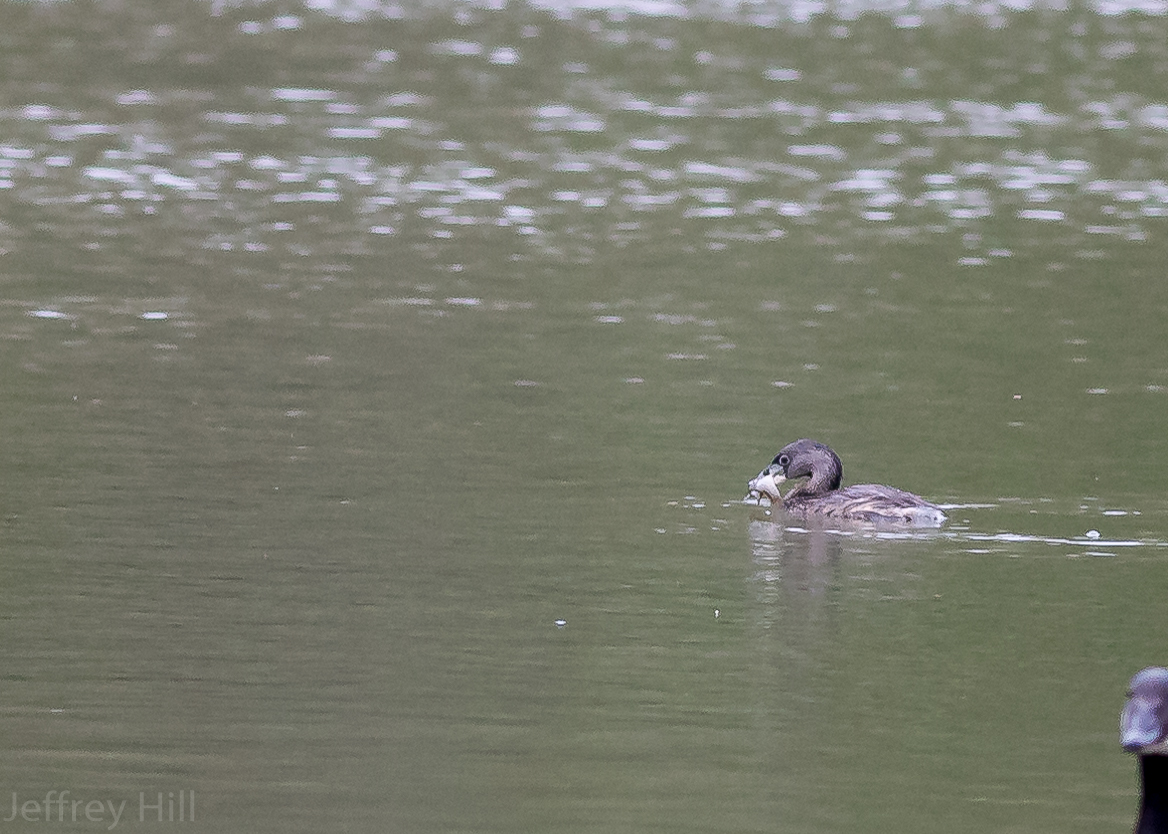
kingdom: Animalia
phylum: Chordata
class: Aves
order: Podicipediformes
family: Podicipedidae
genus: Podilymbus
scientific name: Podilymbus podiceps
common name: Pied-billed grebe
